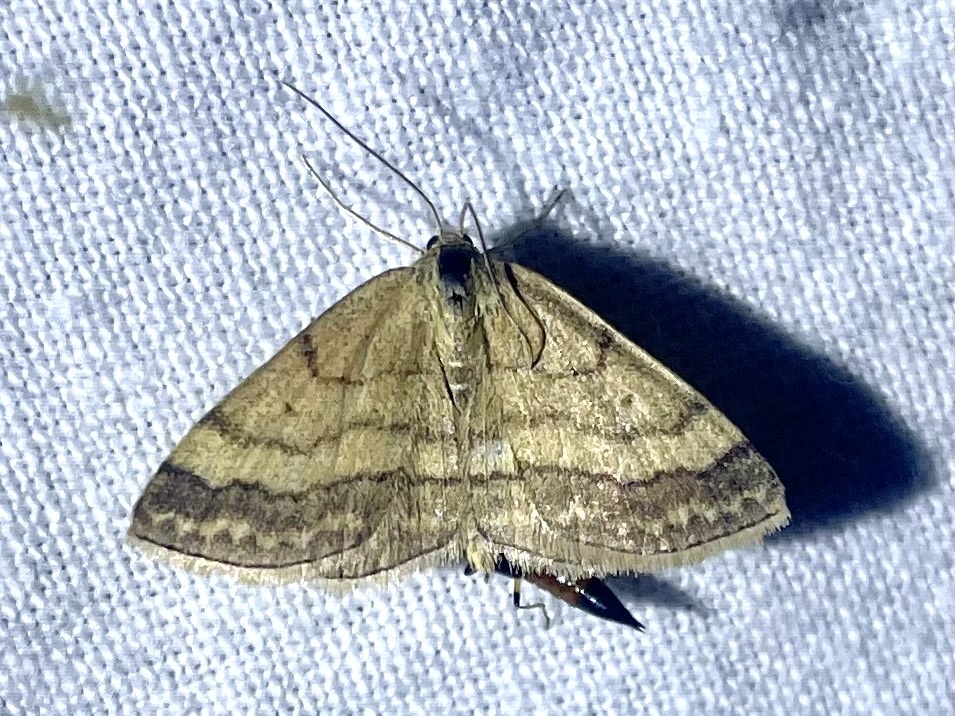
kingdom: Animalia
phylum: Arthropoda
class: Insecta
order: Lepidoptera
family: Geometridae
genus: Scopula
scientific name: Scopula rubiginata
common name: Tawny wave
